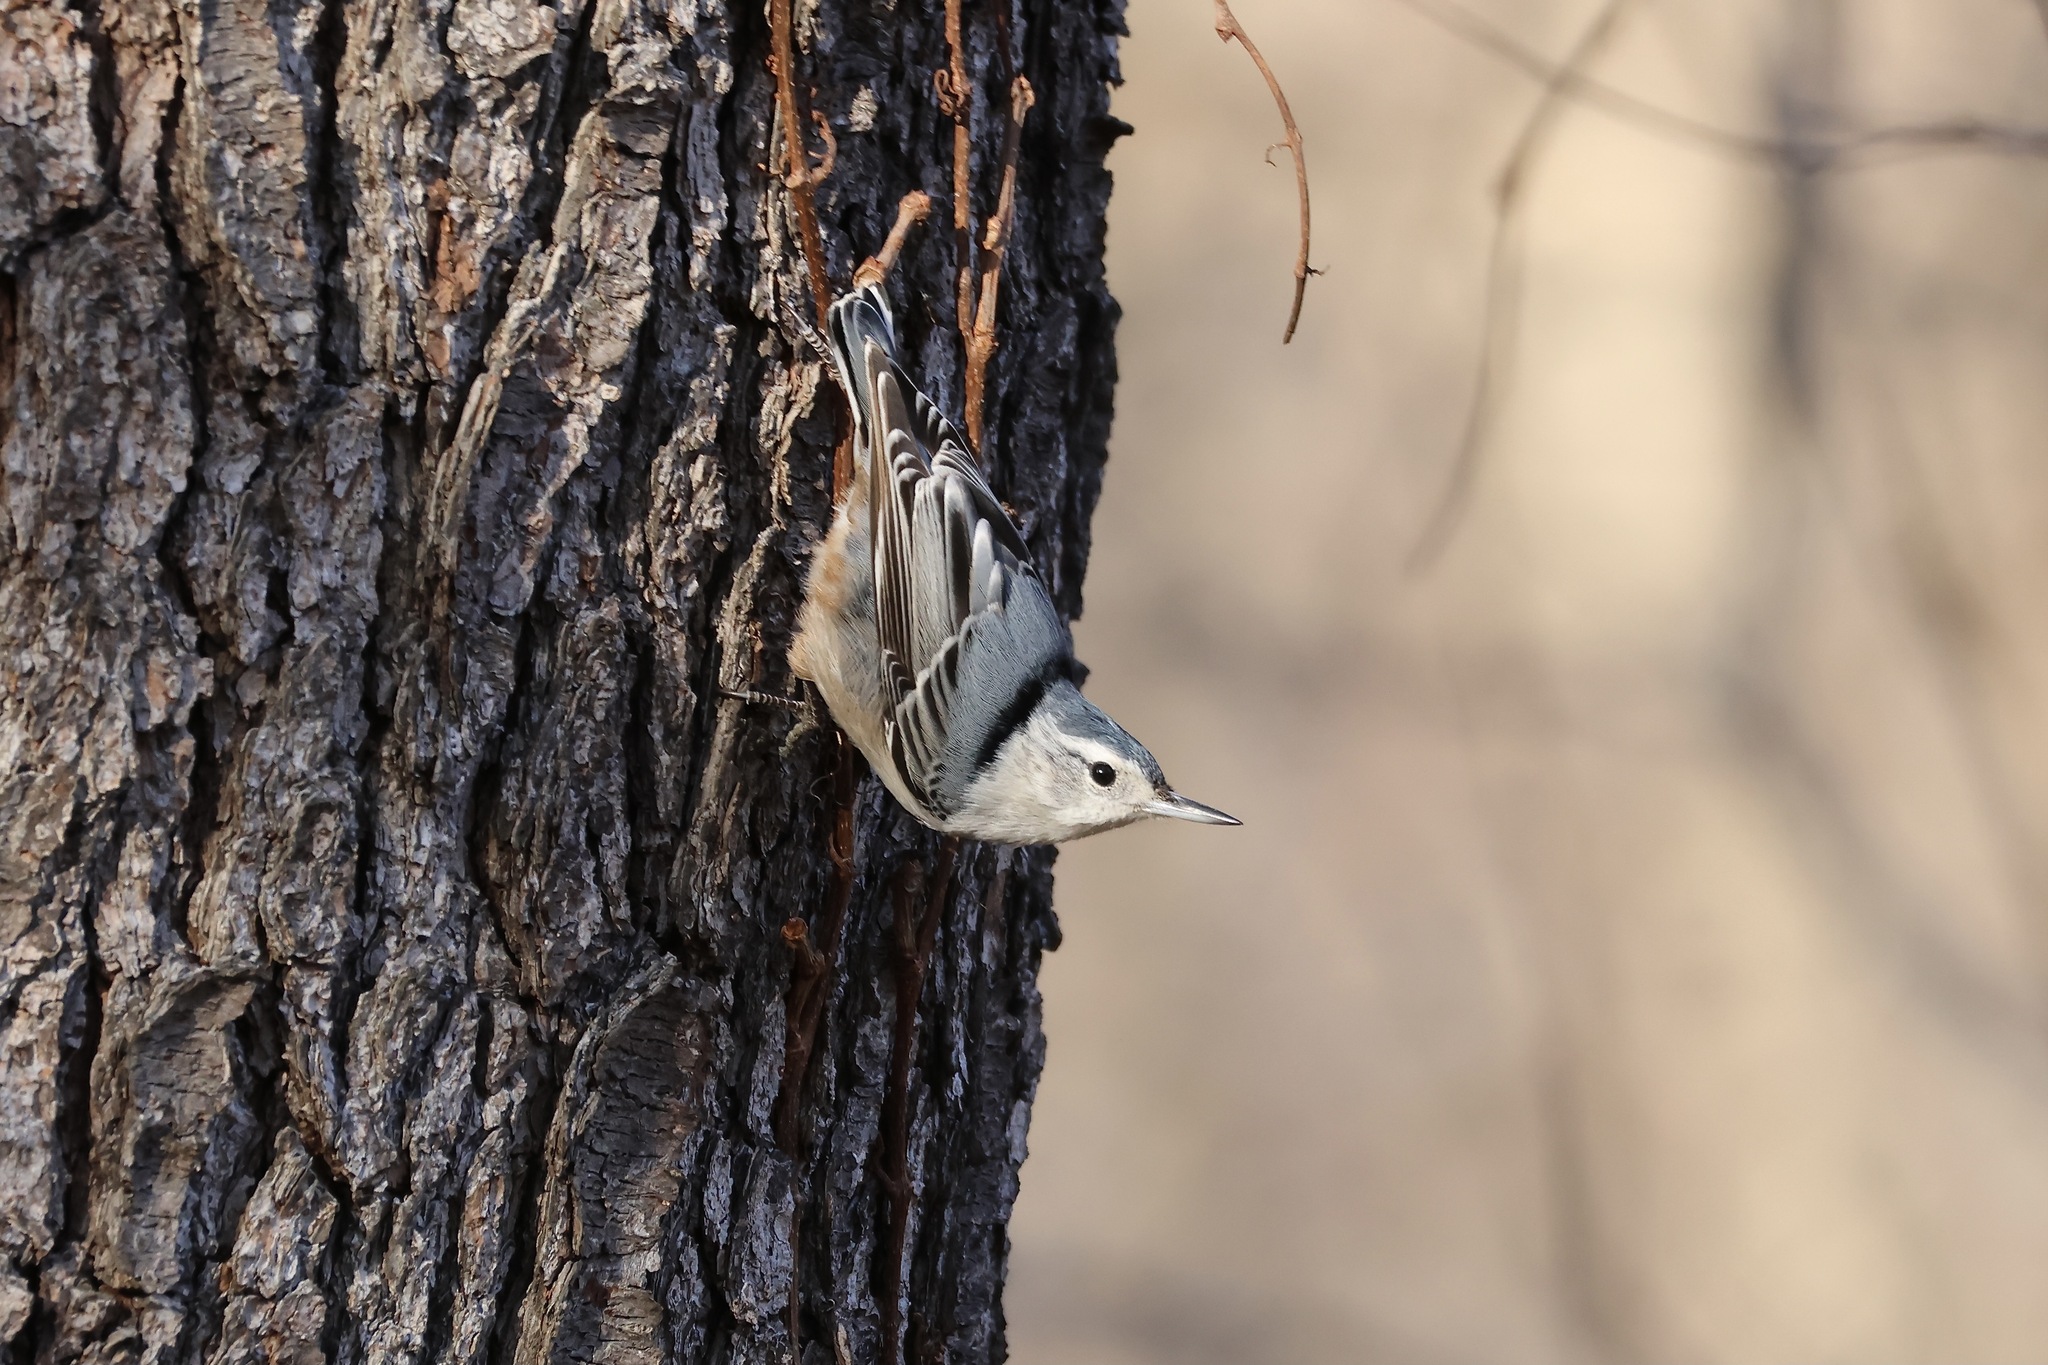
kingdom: Animalia
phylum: Chordata
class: Aves
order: Passeriformes
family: Sittidae
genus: Sitta
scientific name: Sitta carolinensis
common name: White-breasted nuthatch
